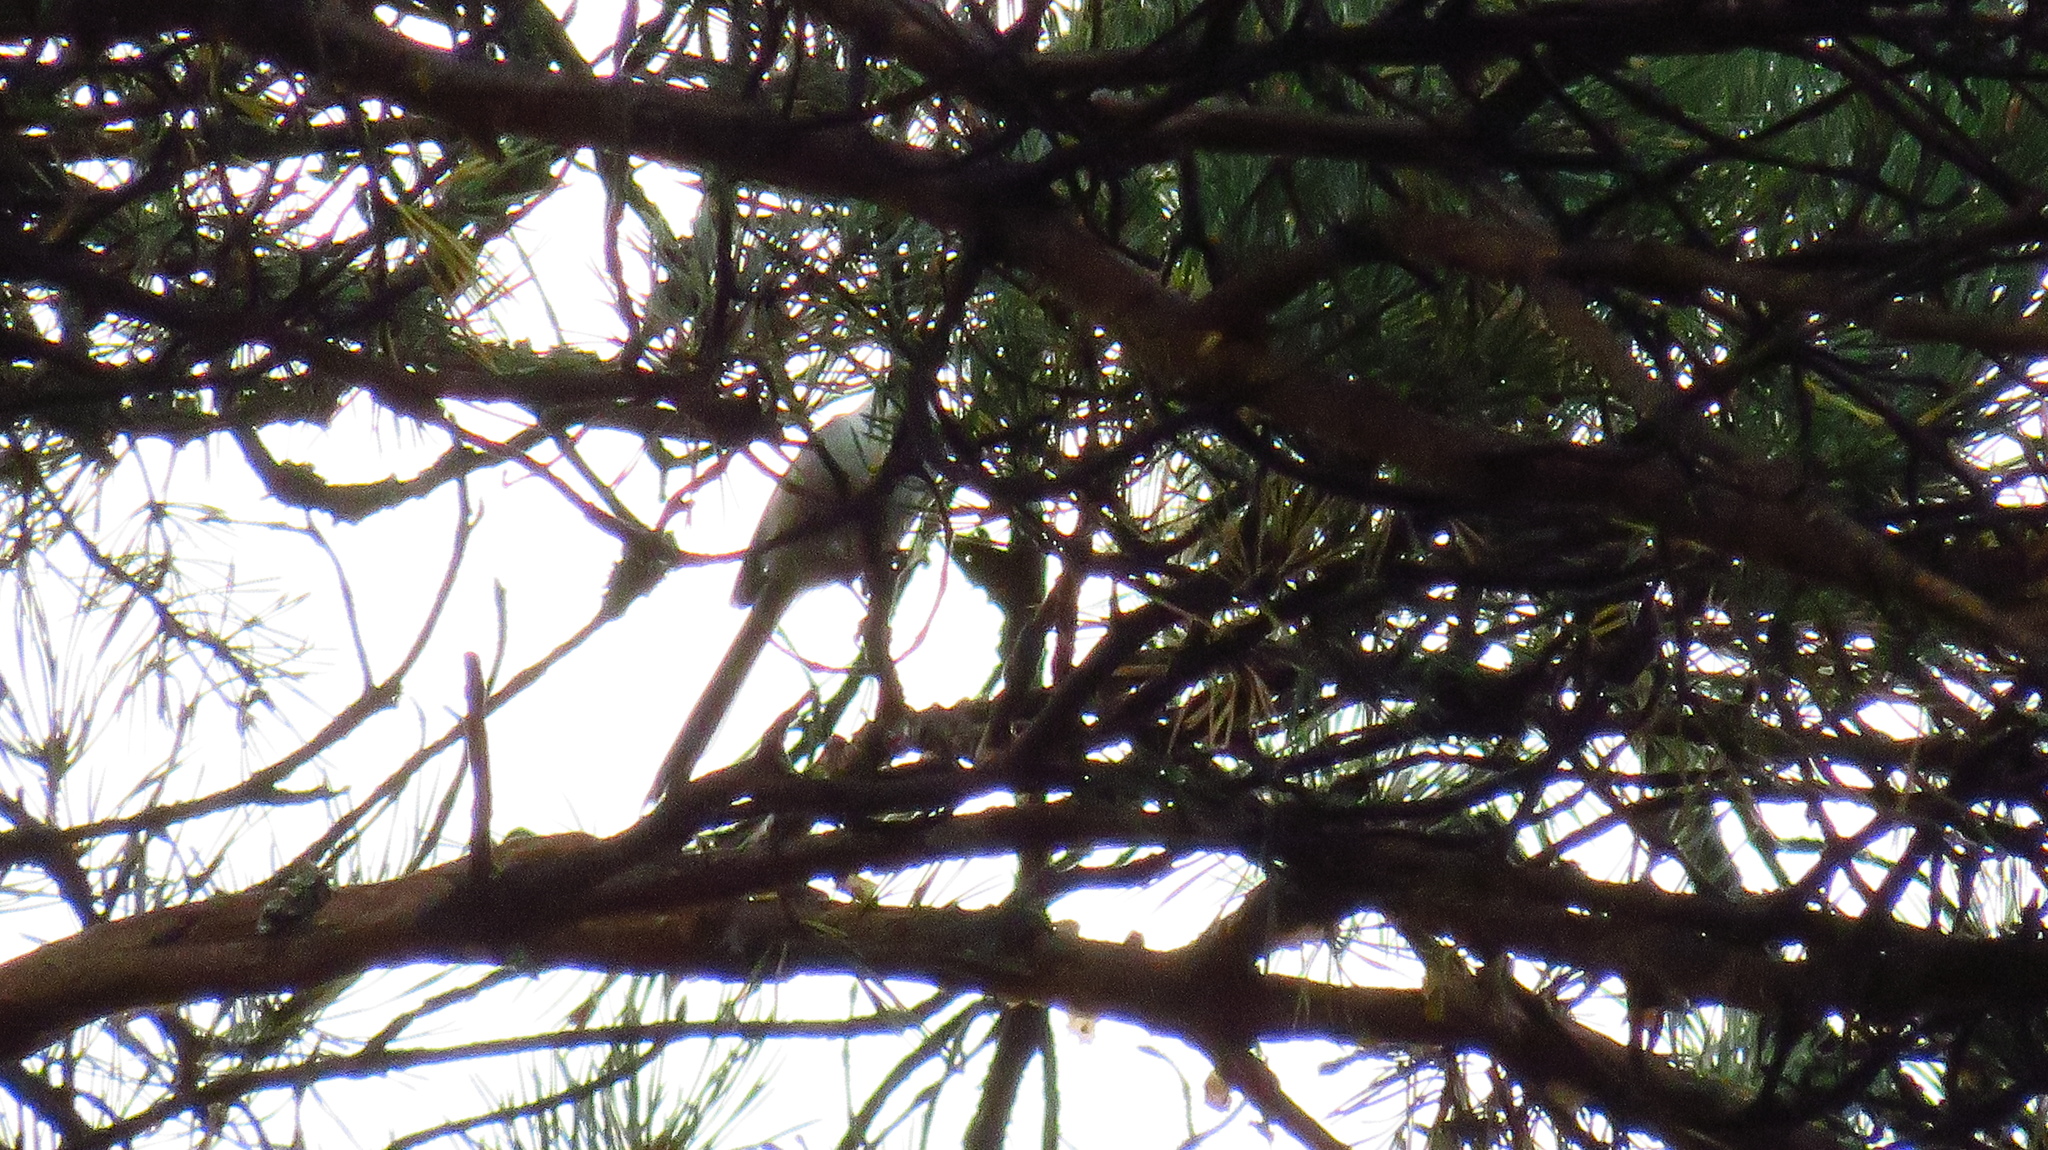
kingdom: Animalia
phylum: Chordata
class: Aves
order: Passeriformes
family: Aegithalidae
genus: Aegithalos
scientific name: Aegithalos caudatus
